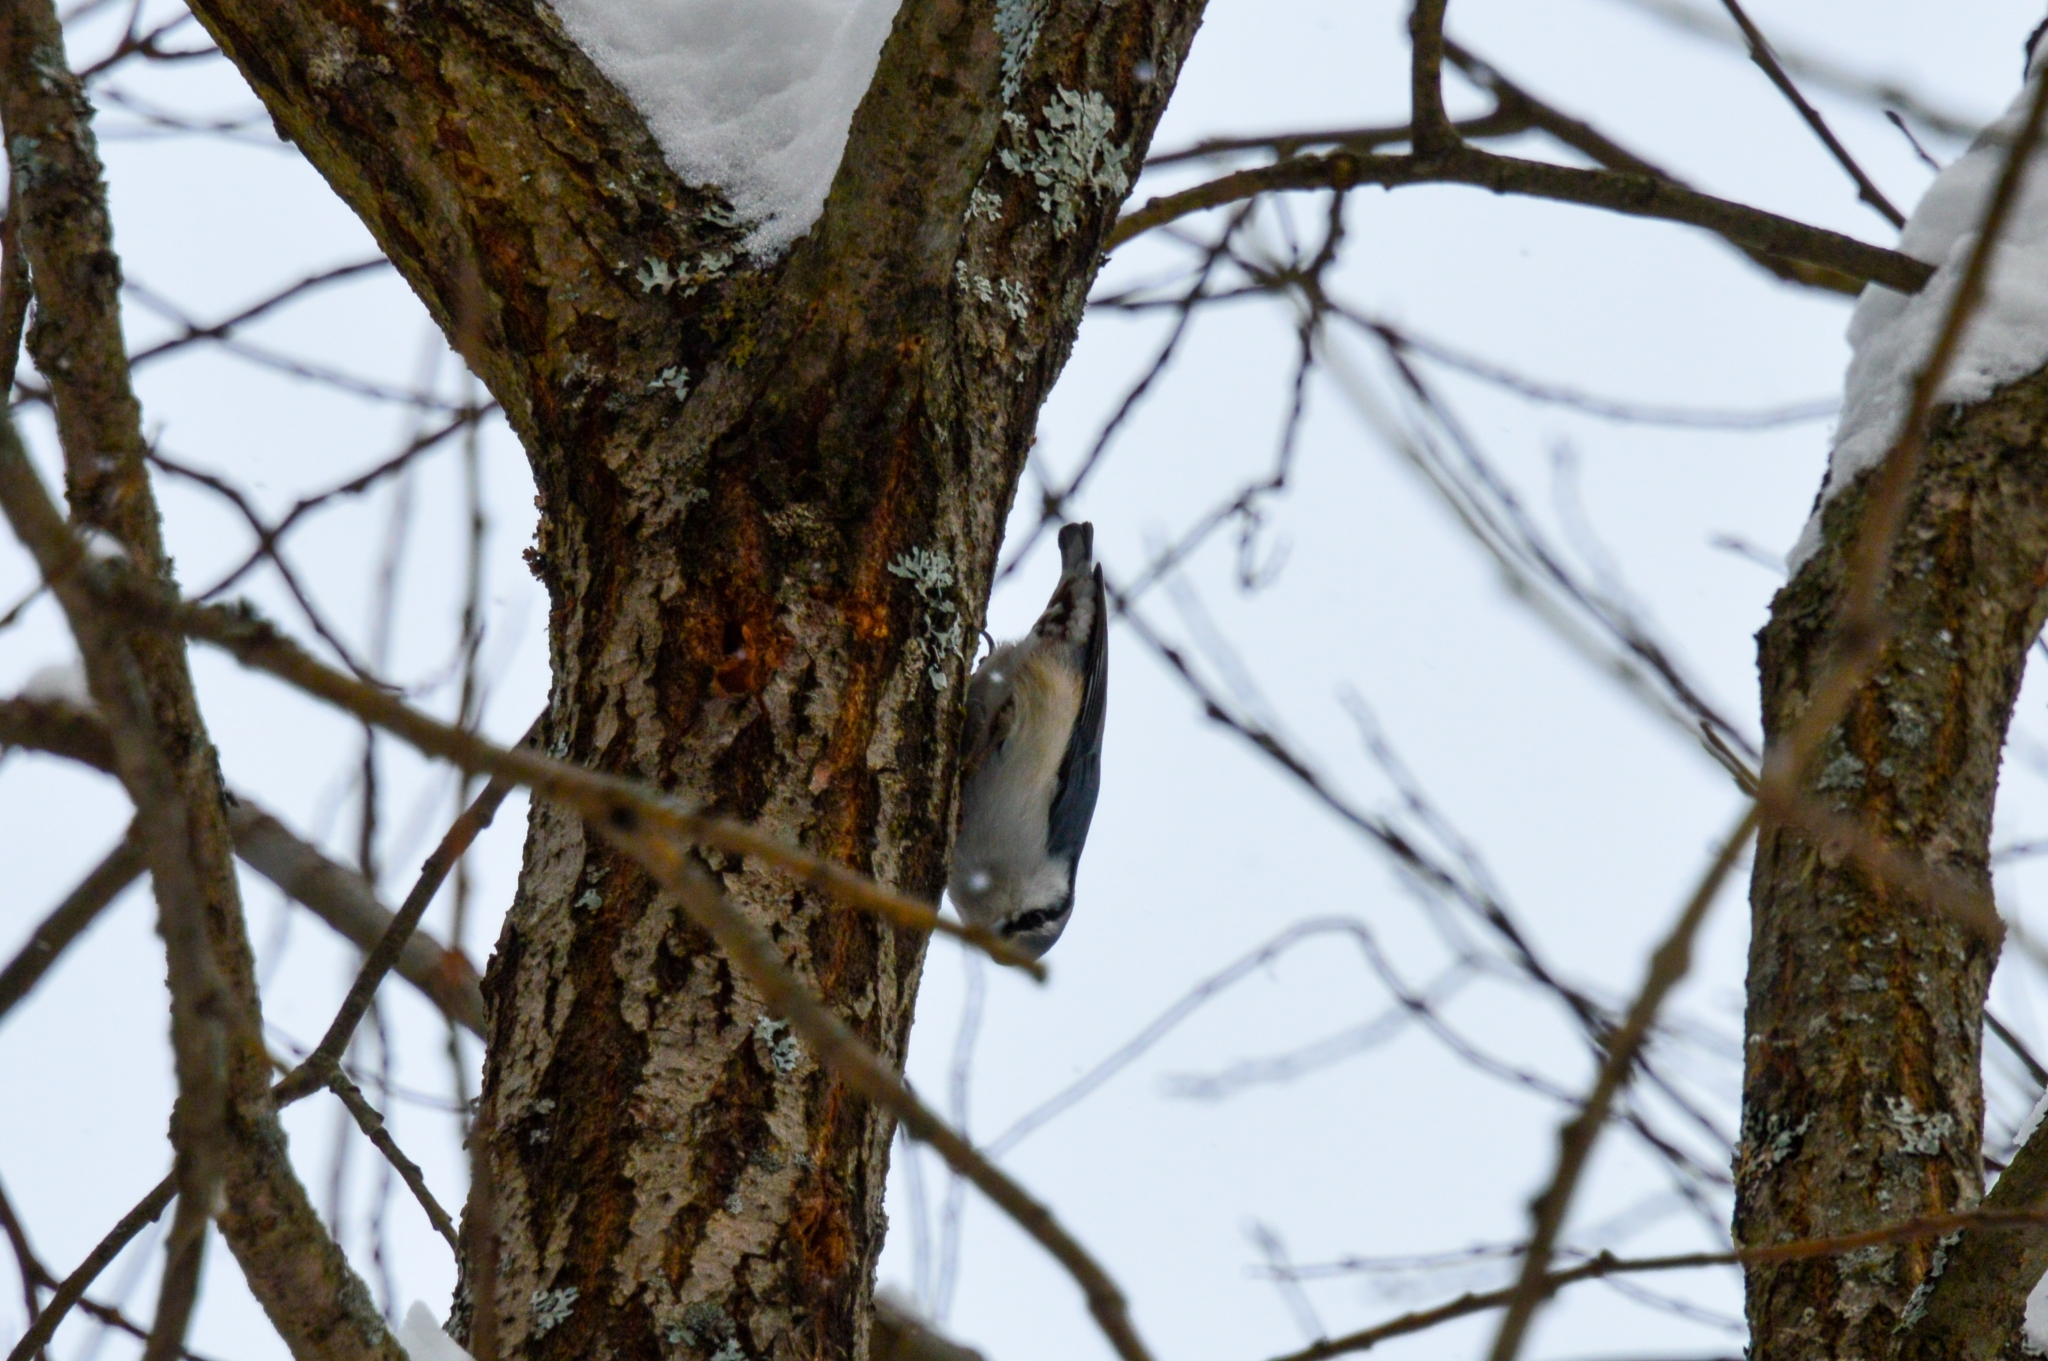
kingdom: Animalia
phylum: Chordata
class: Aves
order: Passeriformes
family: Sittidae
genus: Sitta
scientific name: Sitta europaea
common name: Eurasian nuthatch
